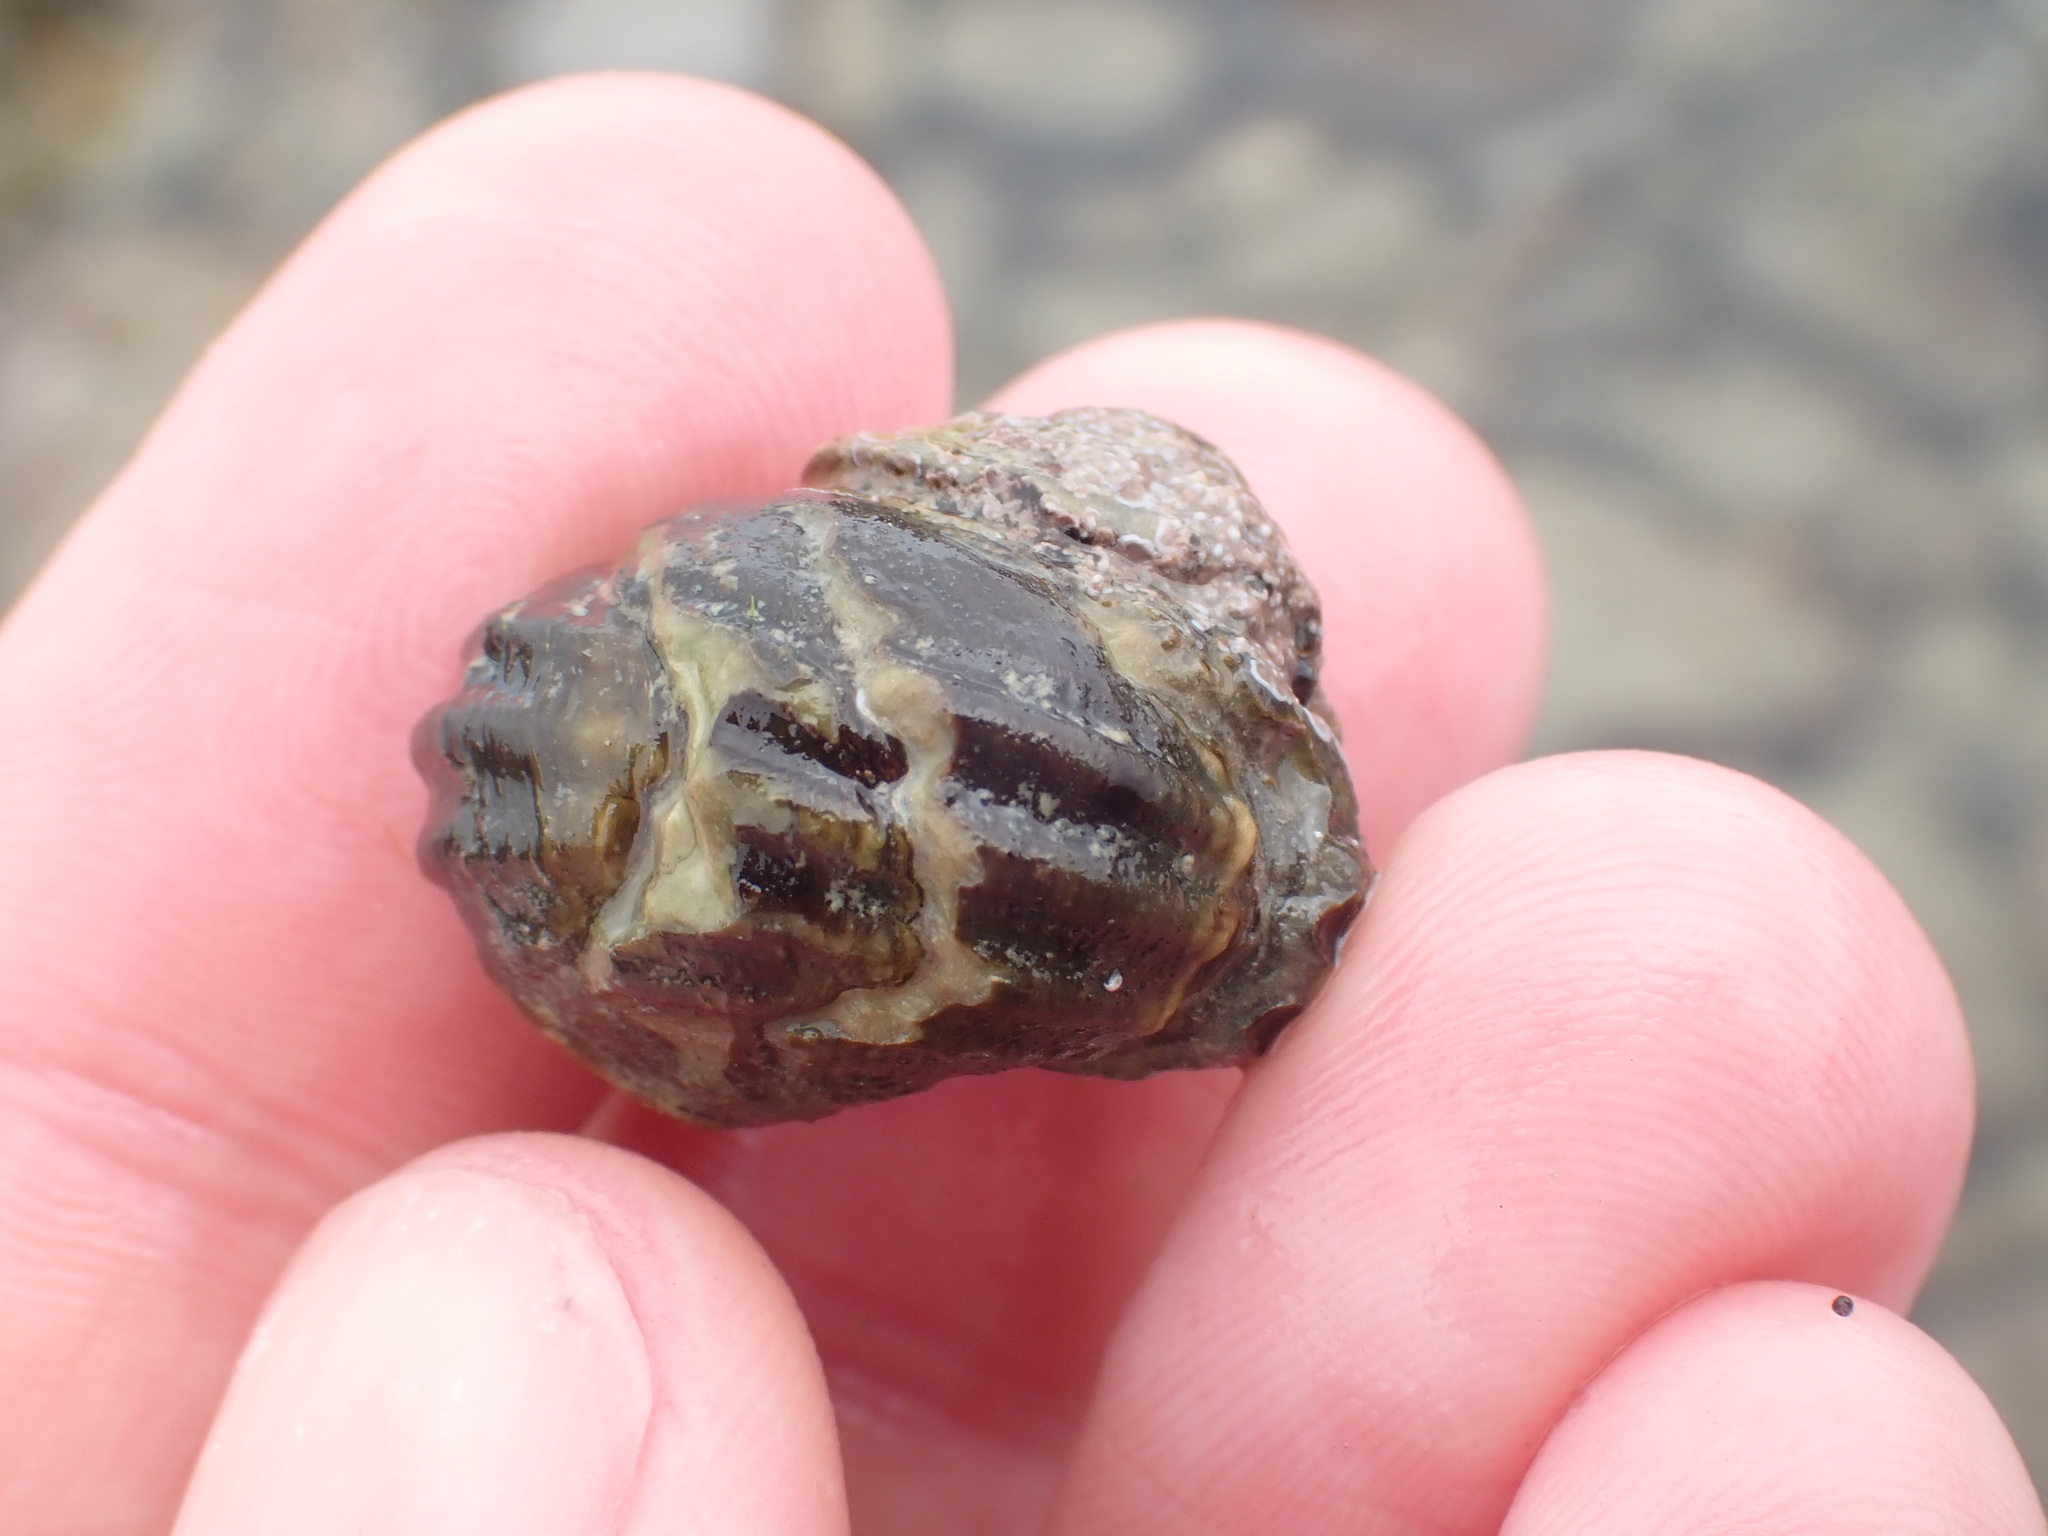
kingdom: Animalia
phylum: Mollusca
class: Gastropoda
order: Trochida
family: Turbinidae
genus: Lunella
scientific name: Lunella smaragda
